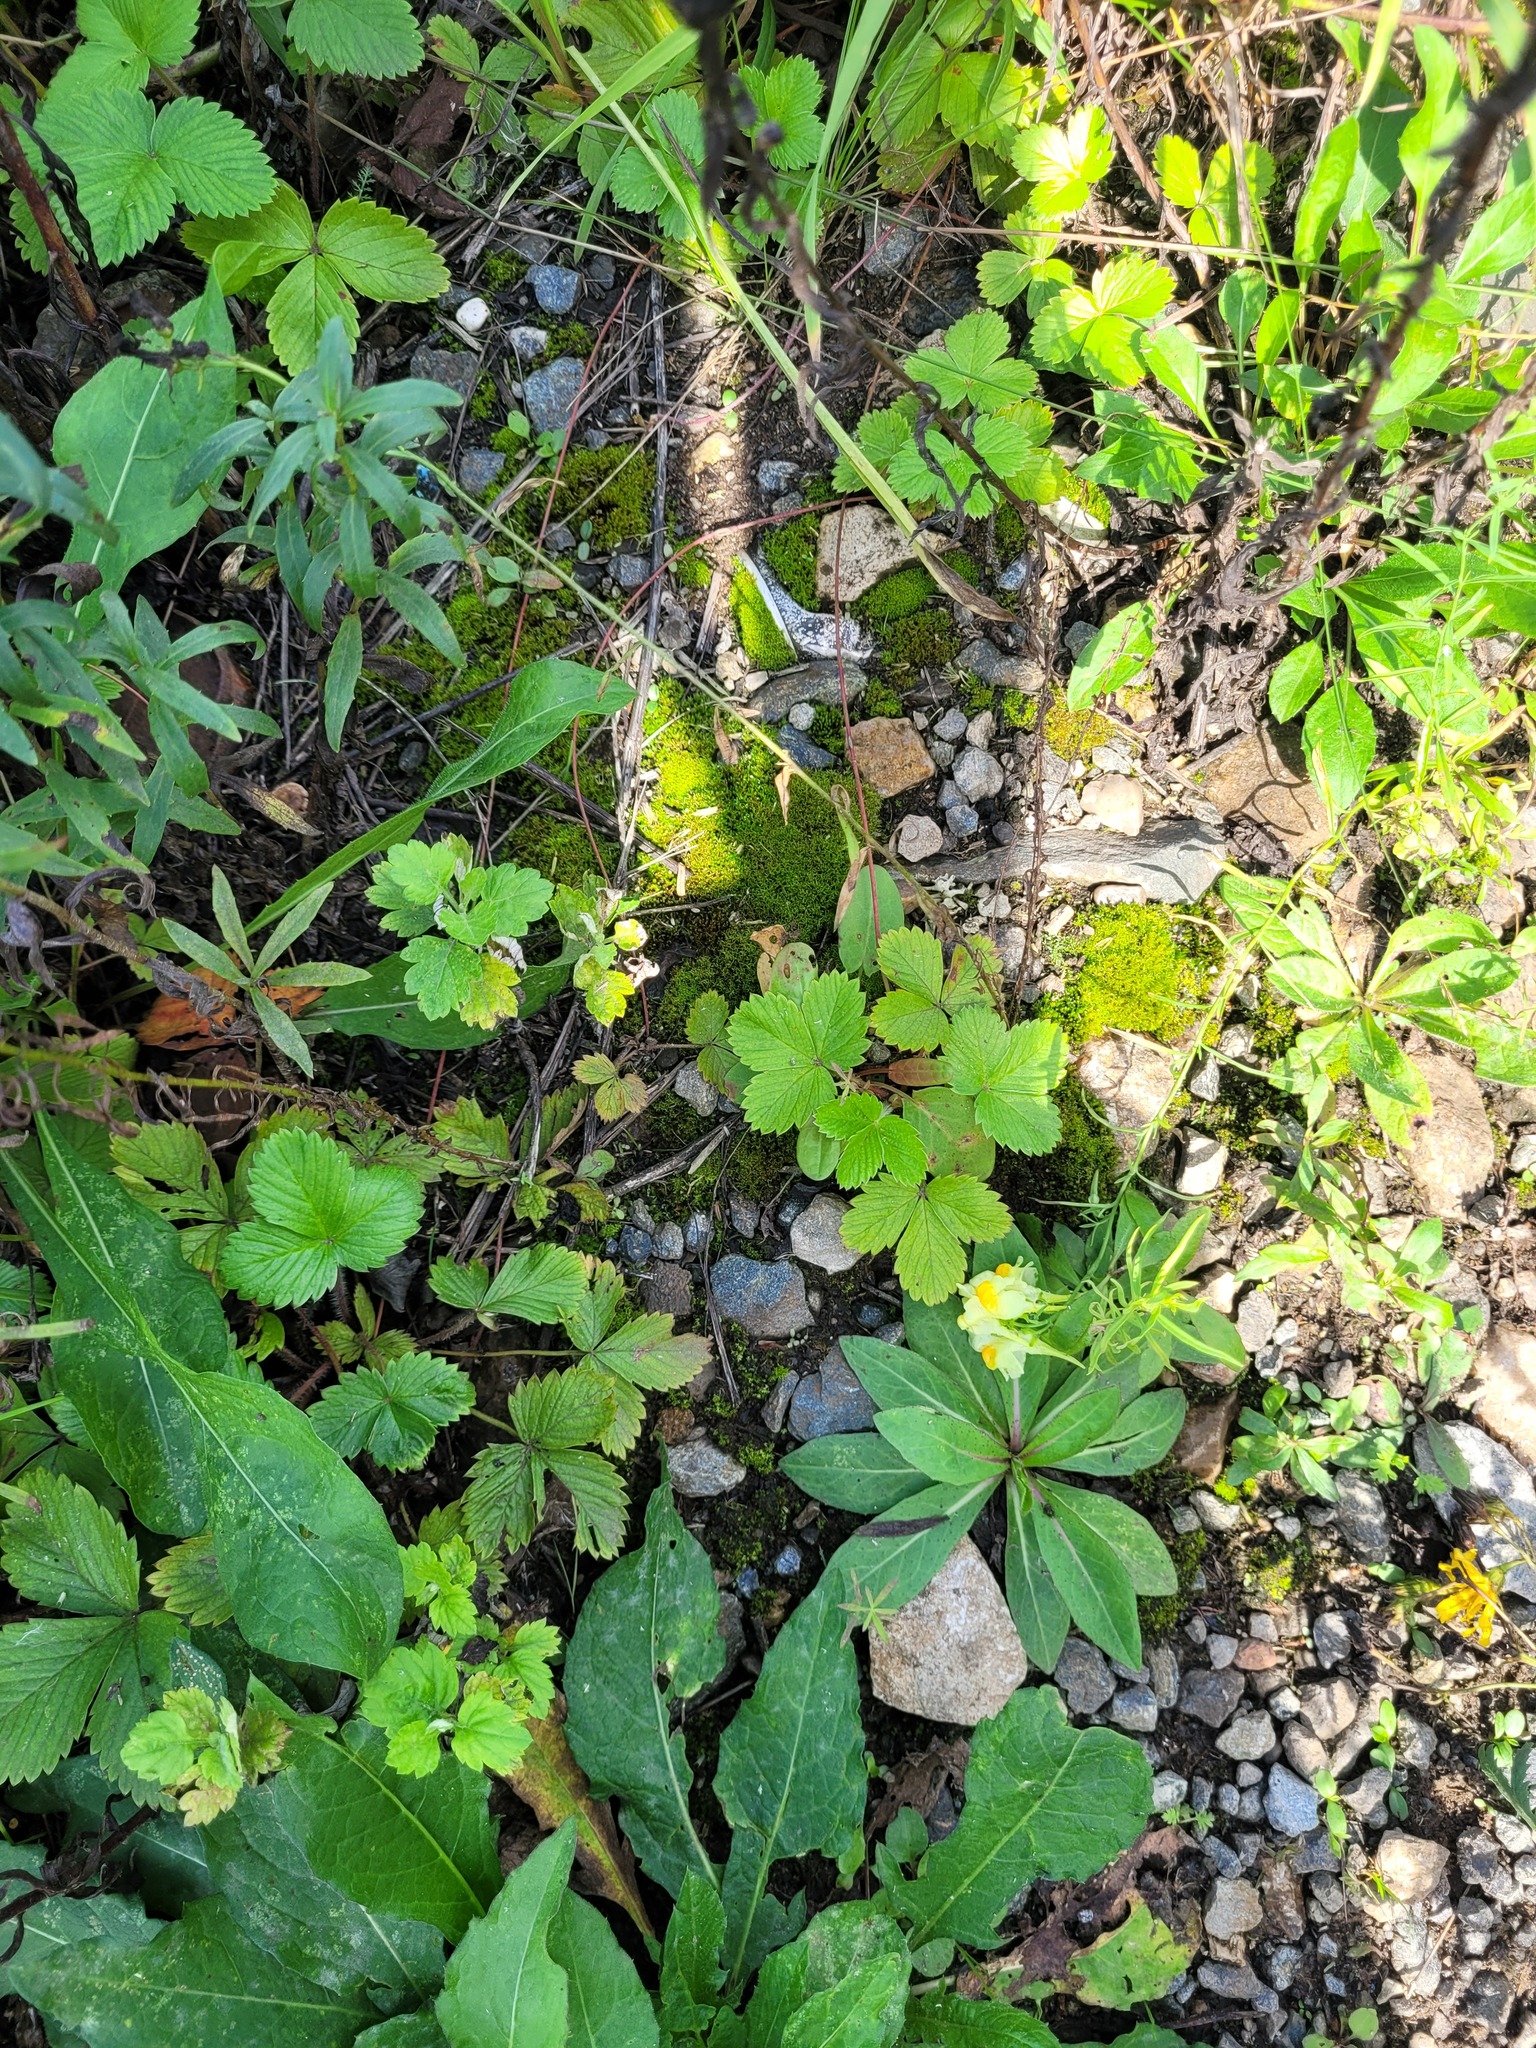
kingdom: Plantae
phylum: Tracheophyta
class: Magnoliopsida
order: Rosales
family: Rosaceae
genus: Fragaria
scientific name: Fragaria vesca
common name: Wild strawberry
